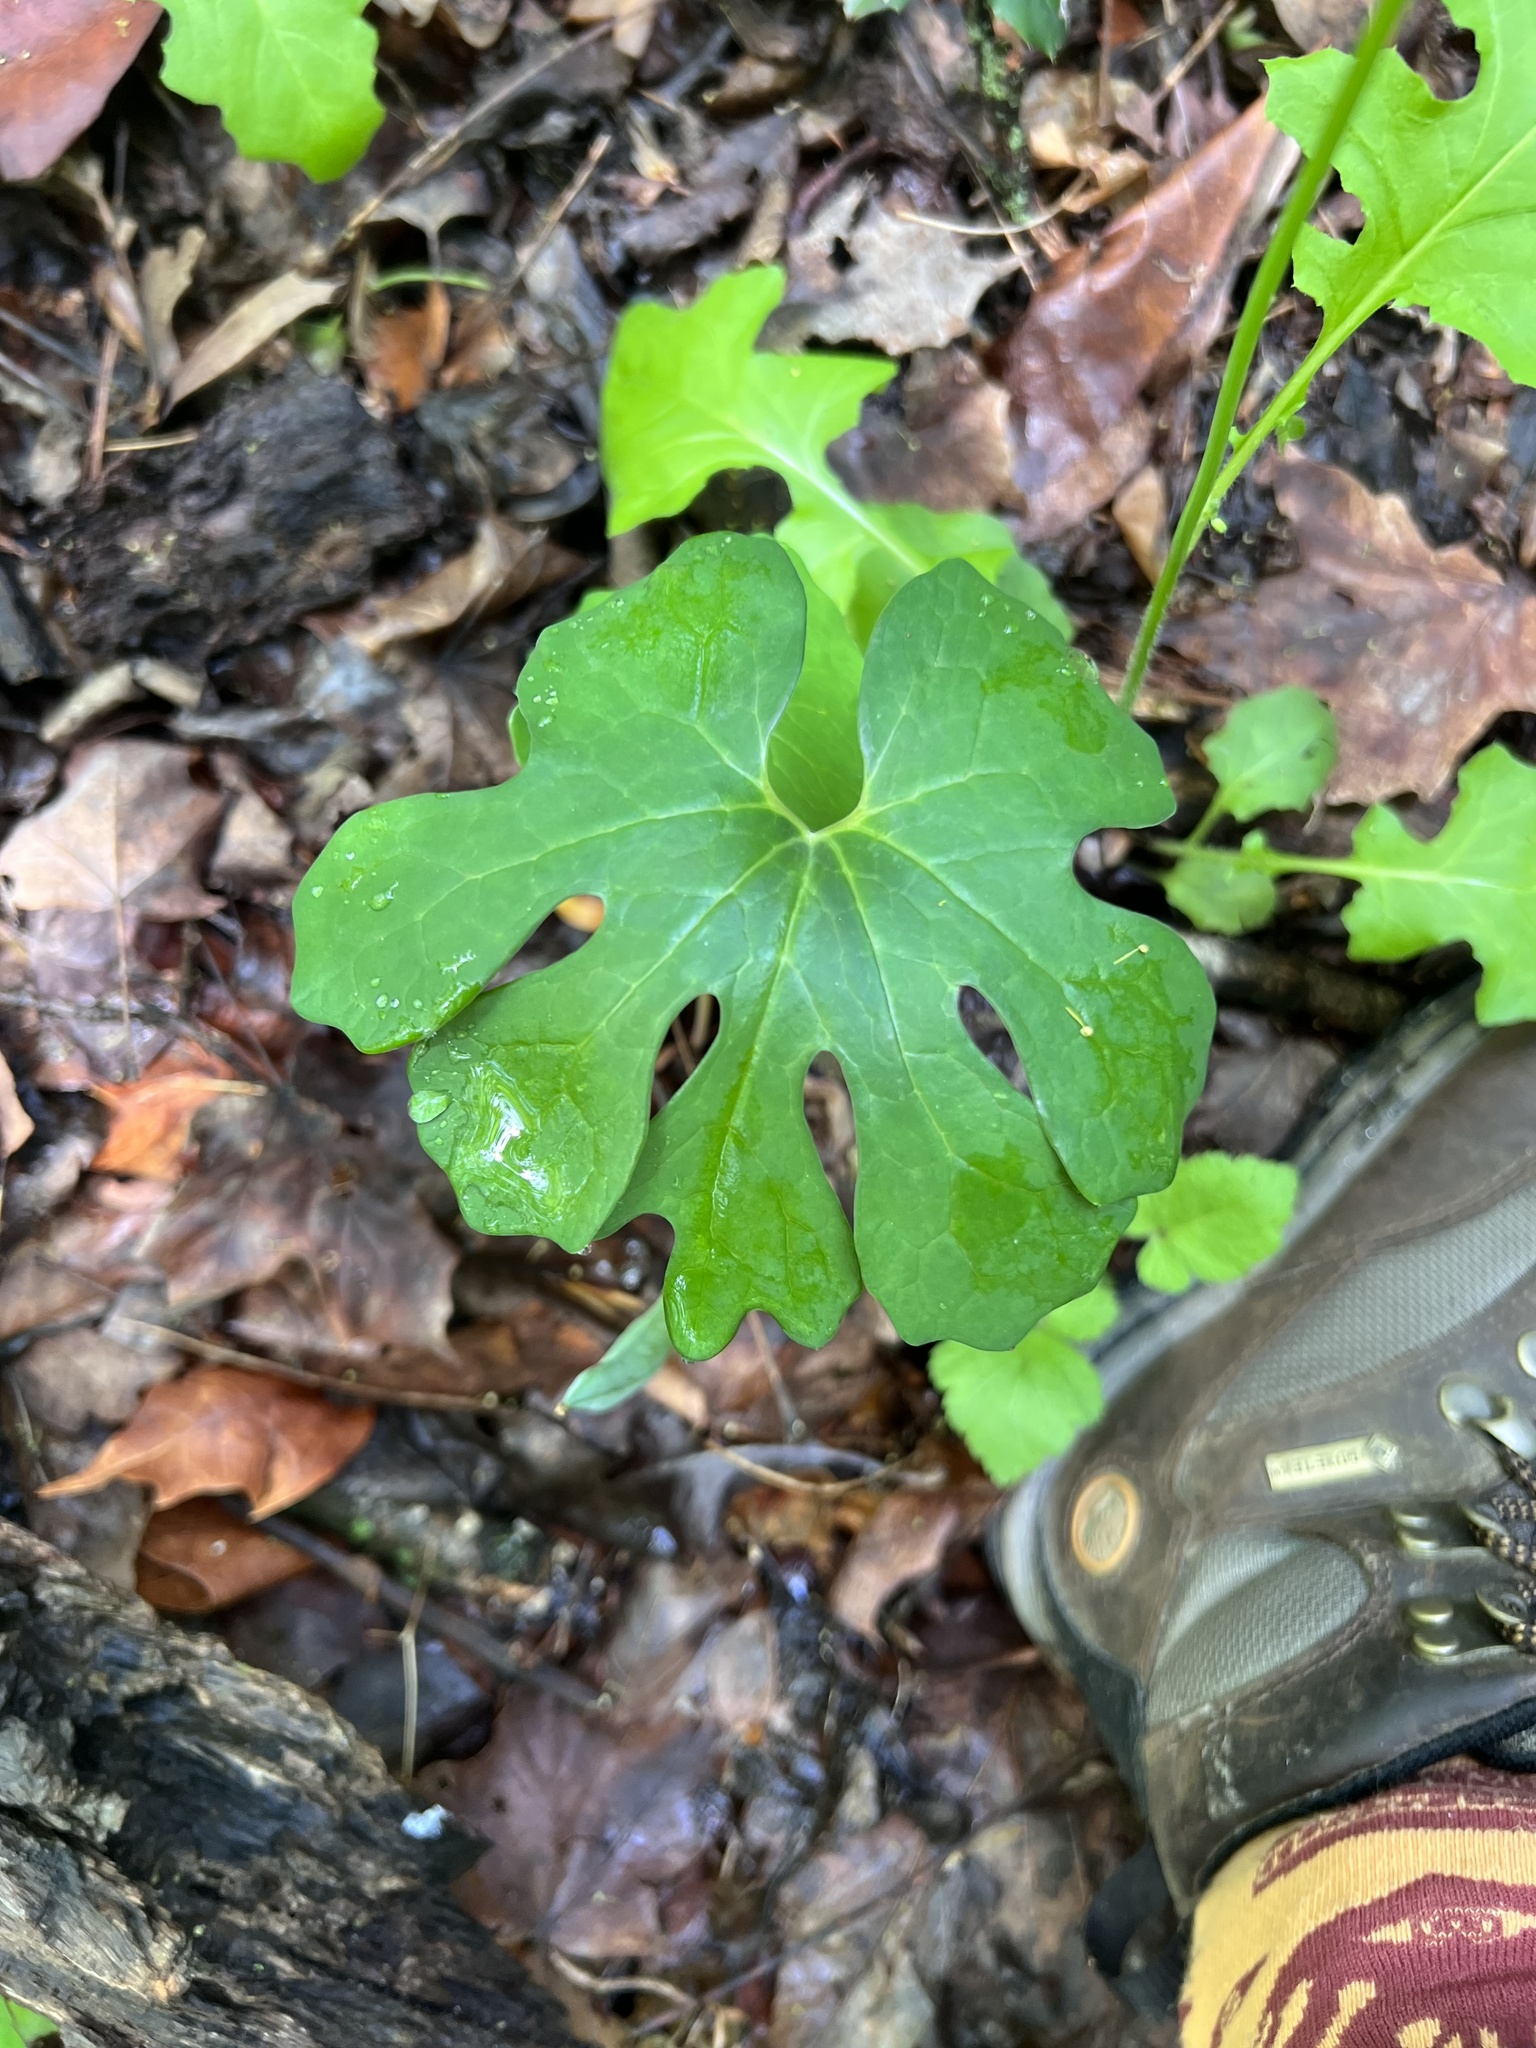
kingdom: Plantae
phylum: Tracheophyta
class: Magnoliopsida
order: Ranunculales
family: Papaveraceae
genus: Sanguinaria
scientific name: Sanguinaria canadensis
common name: Bloodroot
